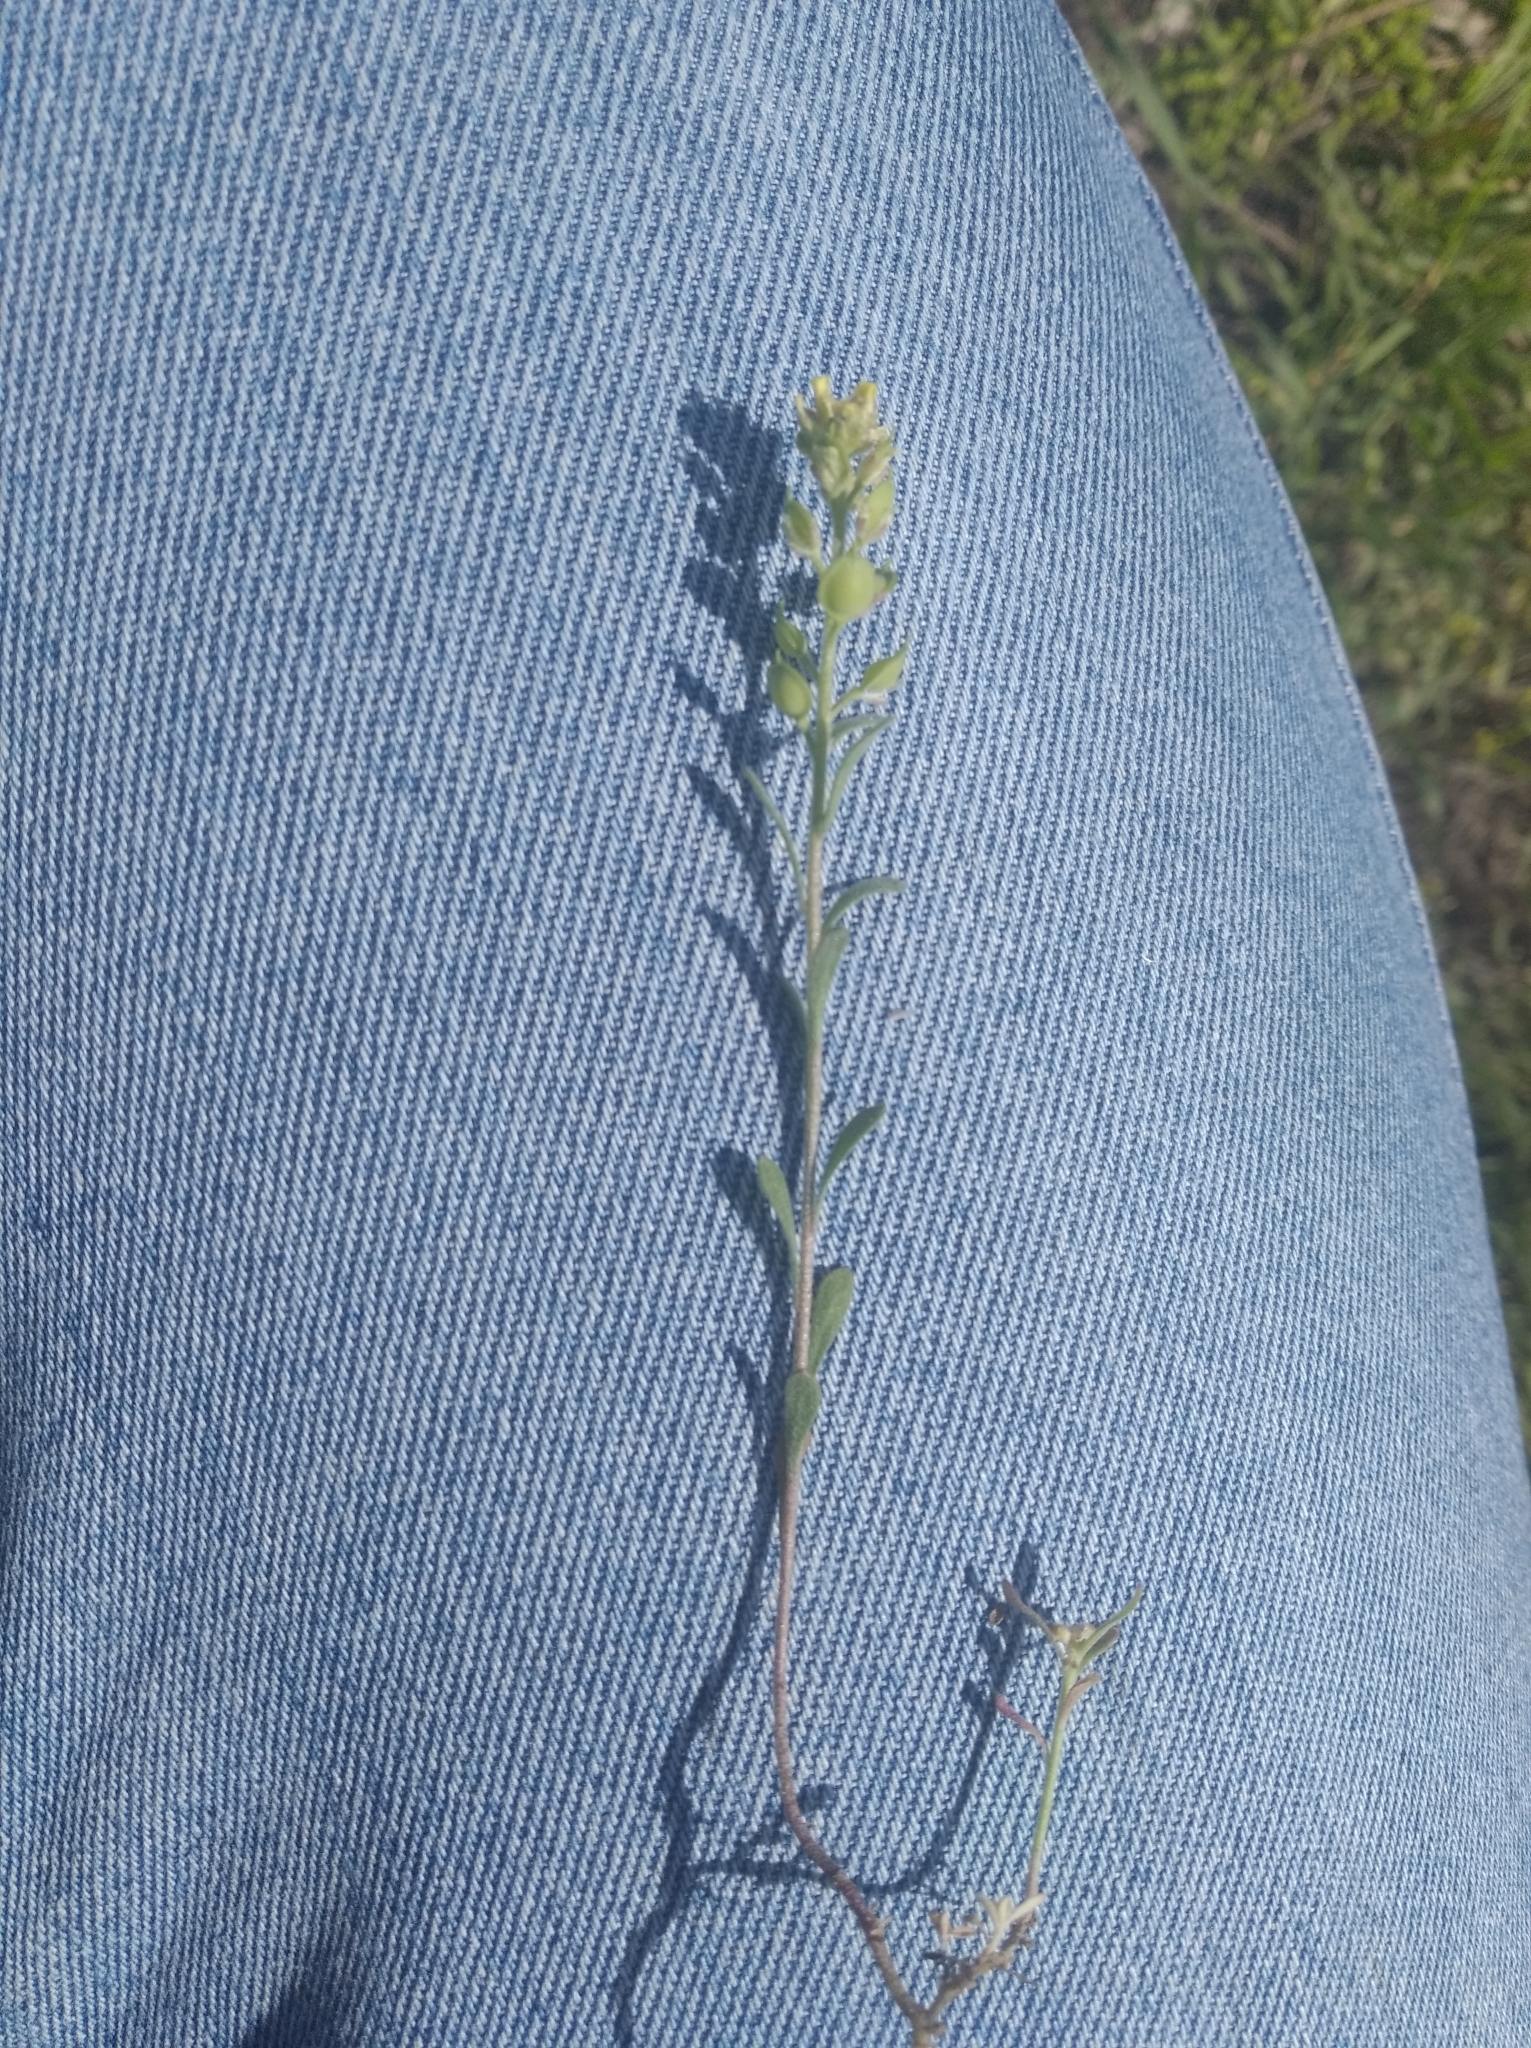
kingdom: Plantae
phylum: Tracheophyta
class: Magnoliopsida
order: Brassicales
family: Brassicaceae
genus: Alyssum
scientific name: Alyssum turkestanicum
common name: Desert alyssum
